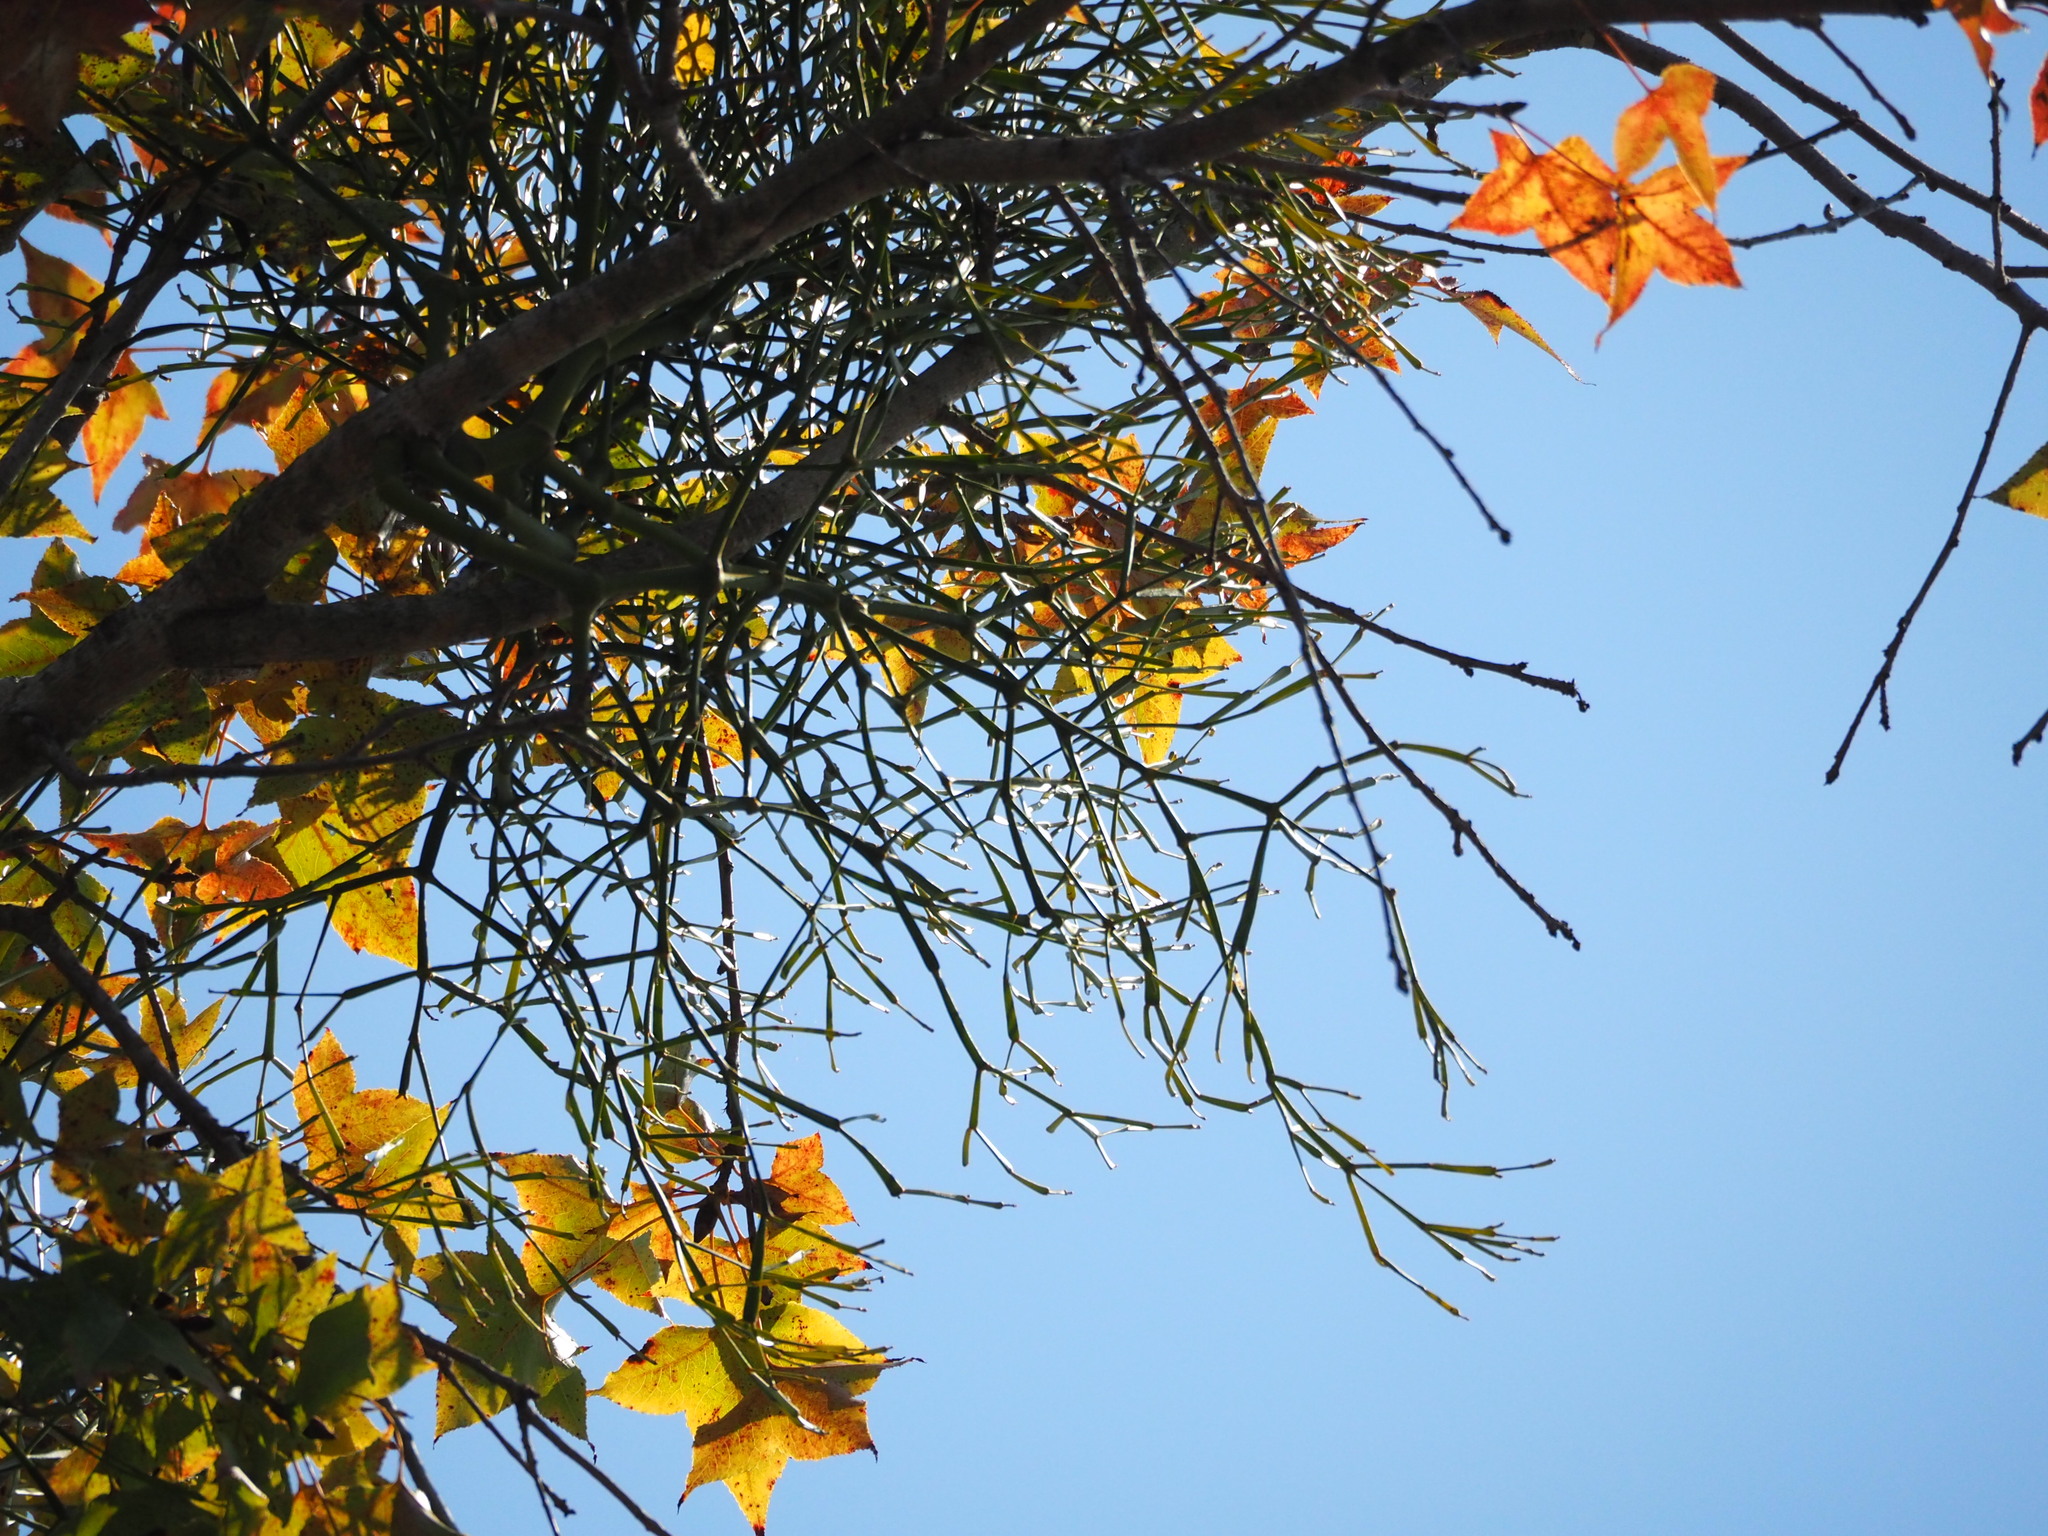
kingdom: Plantae
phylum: Tracheophyta
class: Magnoliopsida
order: Santalales
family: Viscaceae
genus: Viscum
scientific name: Viscum liquidambaricola
